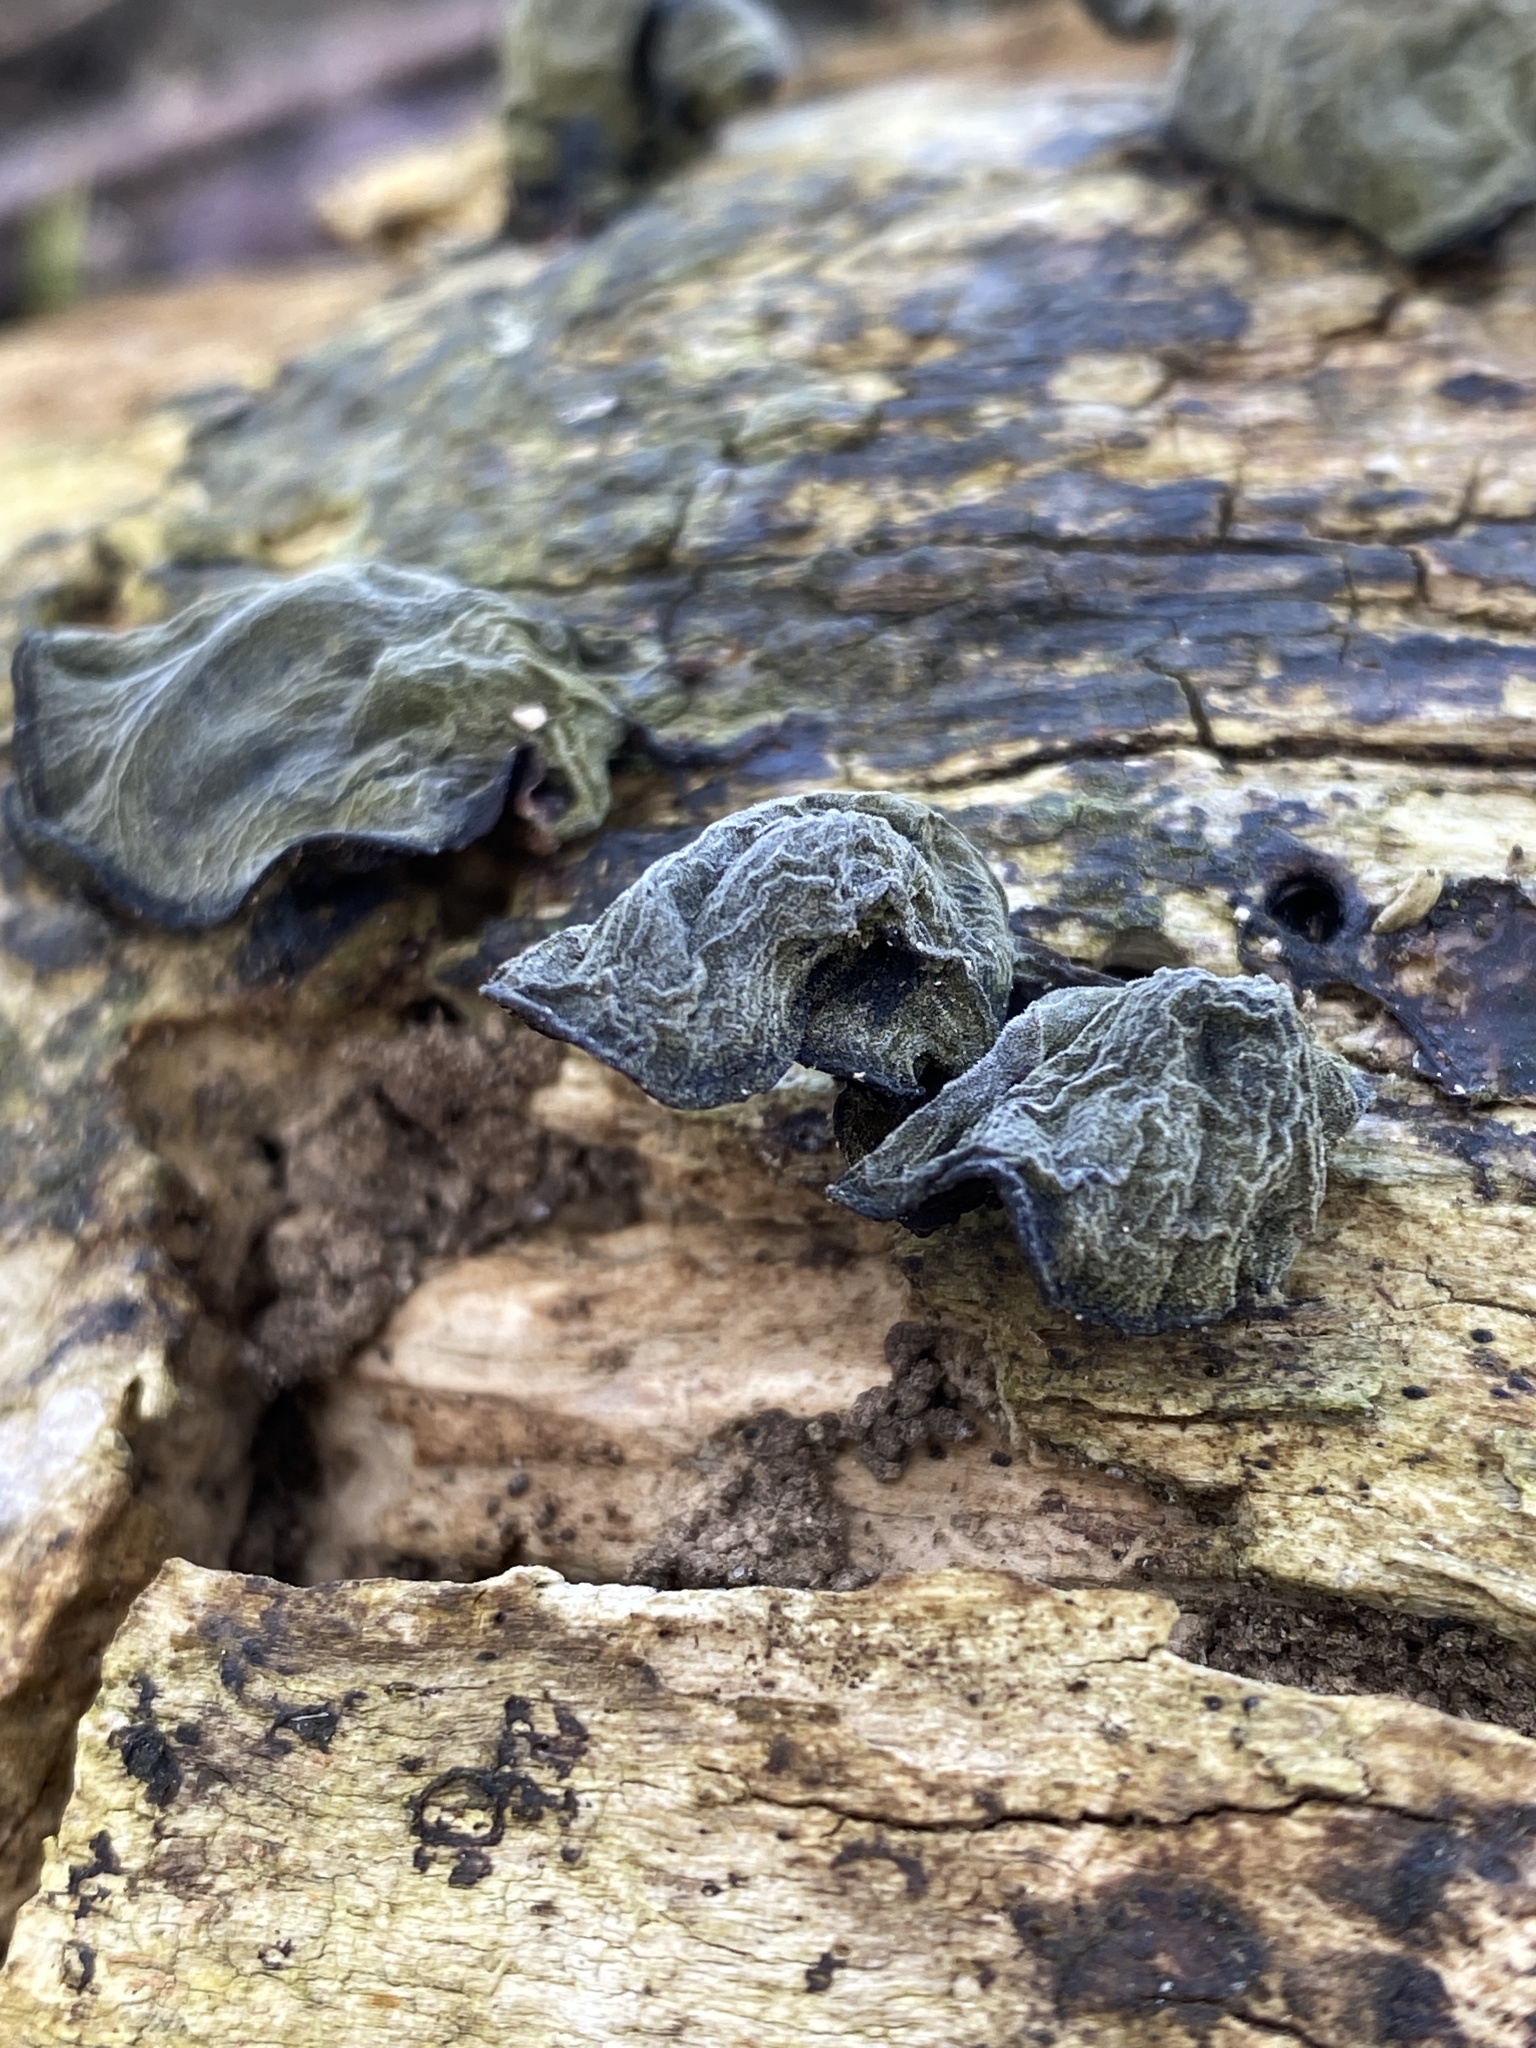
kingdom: Fungi
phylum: Basidiomycota
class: Agaricomycetes
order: Auriculariales
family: Auriculariaceae
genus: Auricularia
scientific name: Auricularia auricula-judae
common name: Jelly ear
